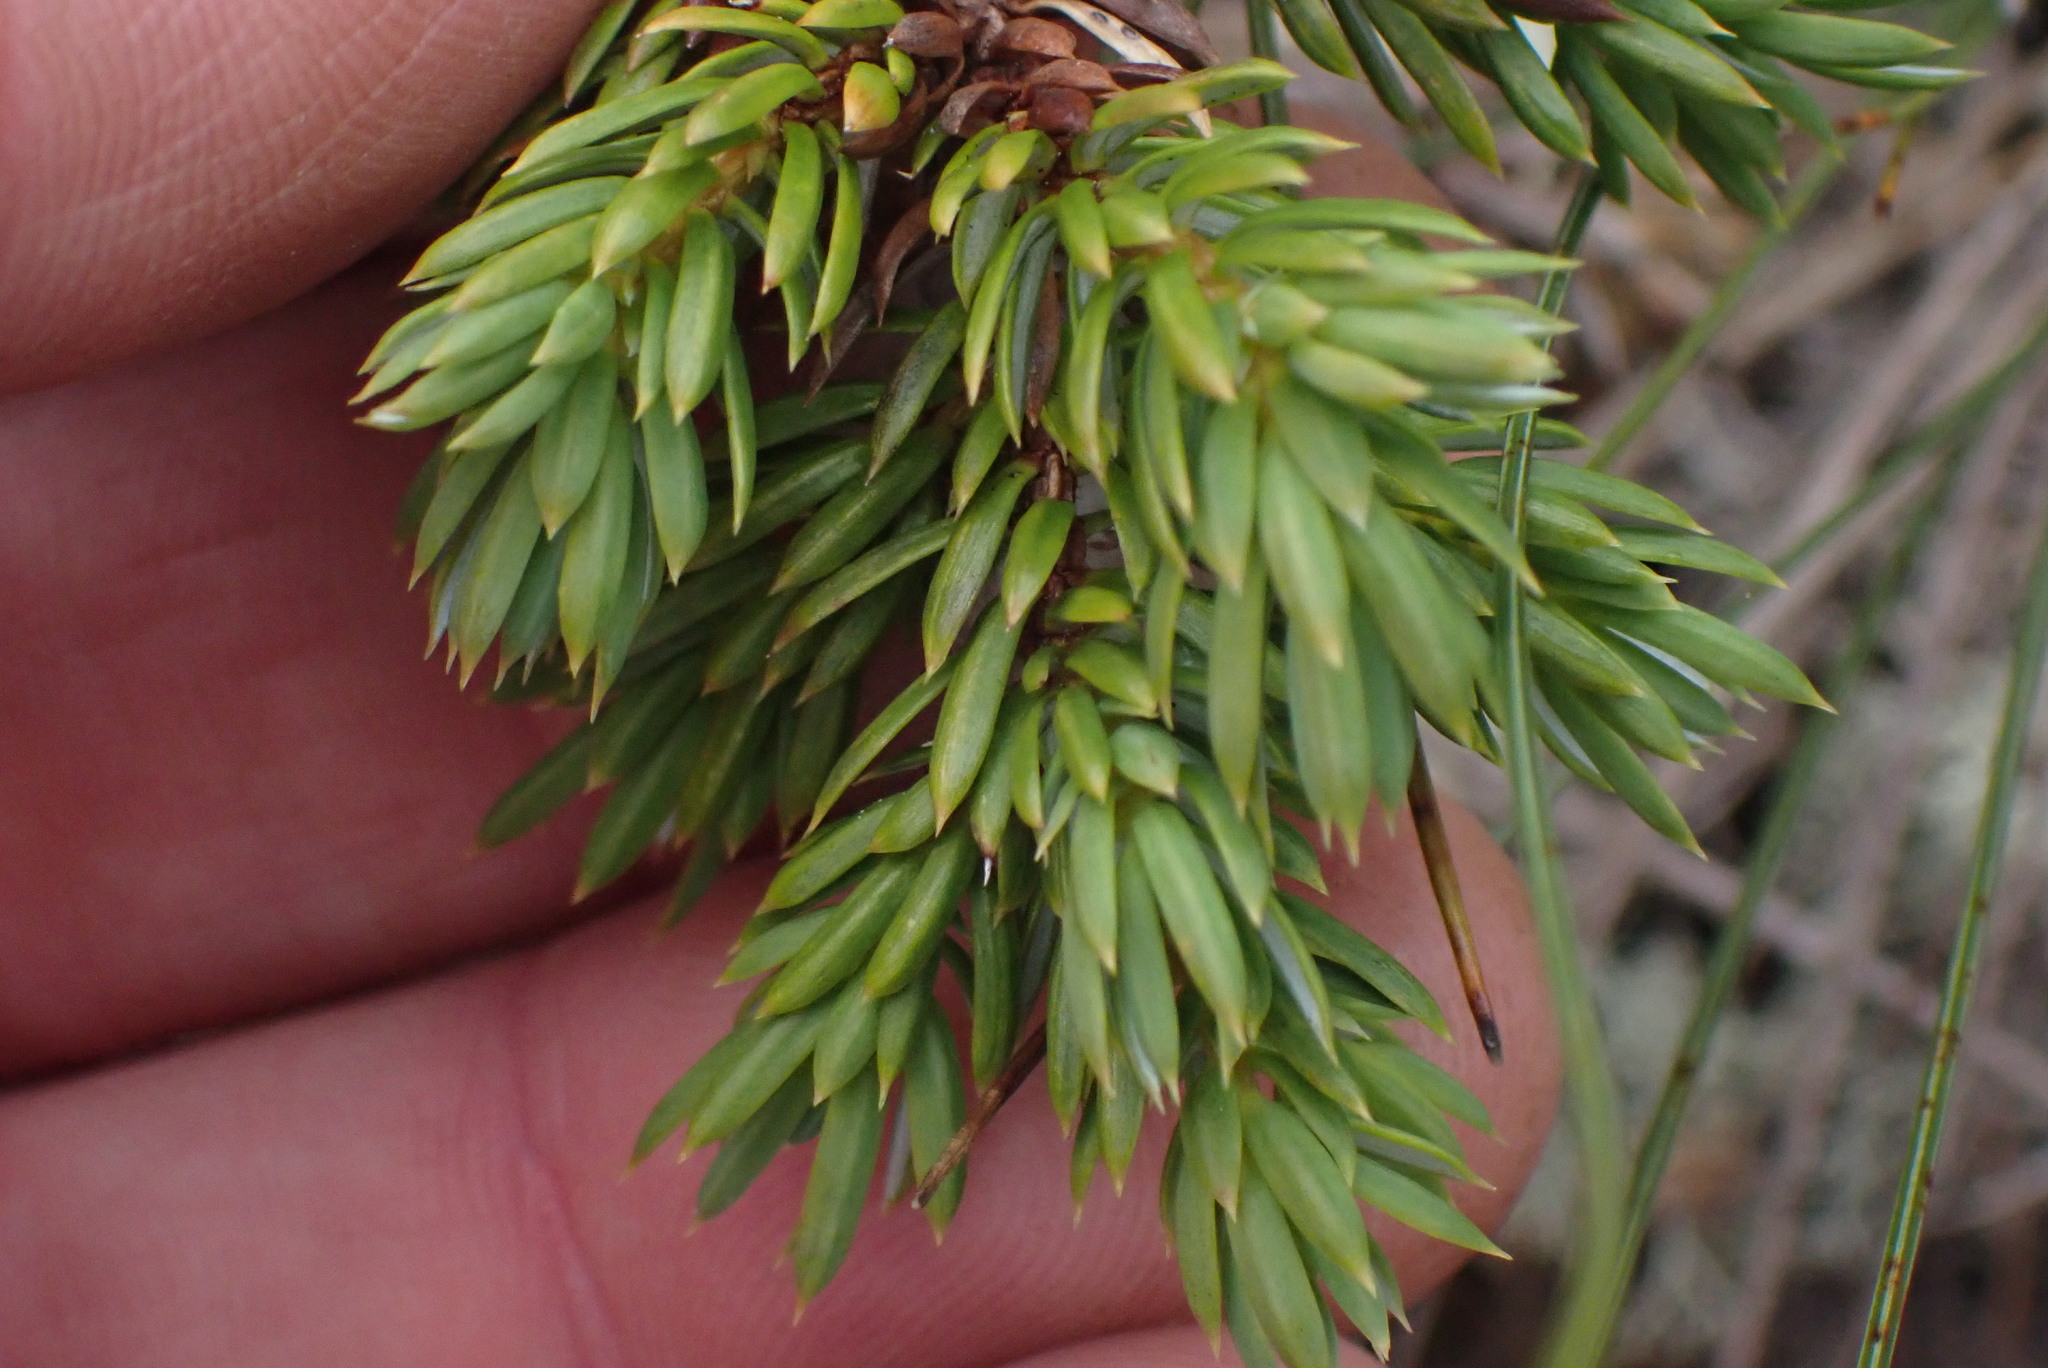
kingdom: Plantae
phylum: Tracheophyta
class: Pinopsida
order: Pinales
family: Cupressaceae
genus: Juniperus
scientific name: Juniperus communis
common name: Common juniper
